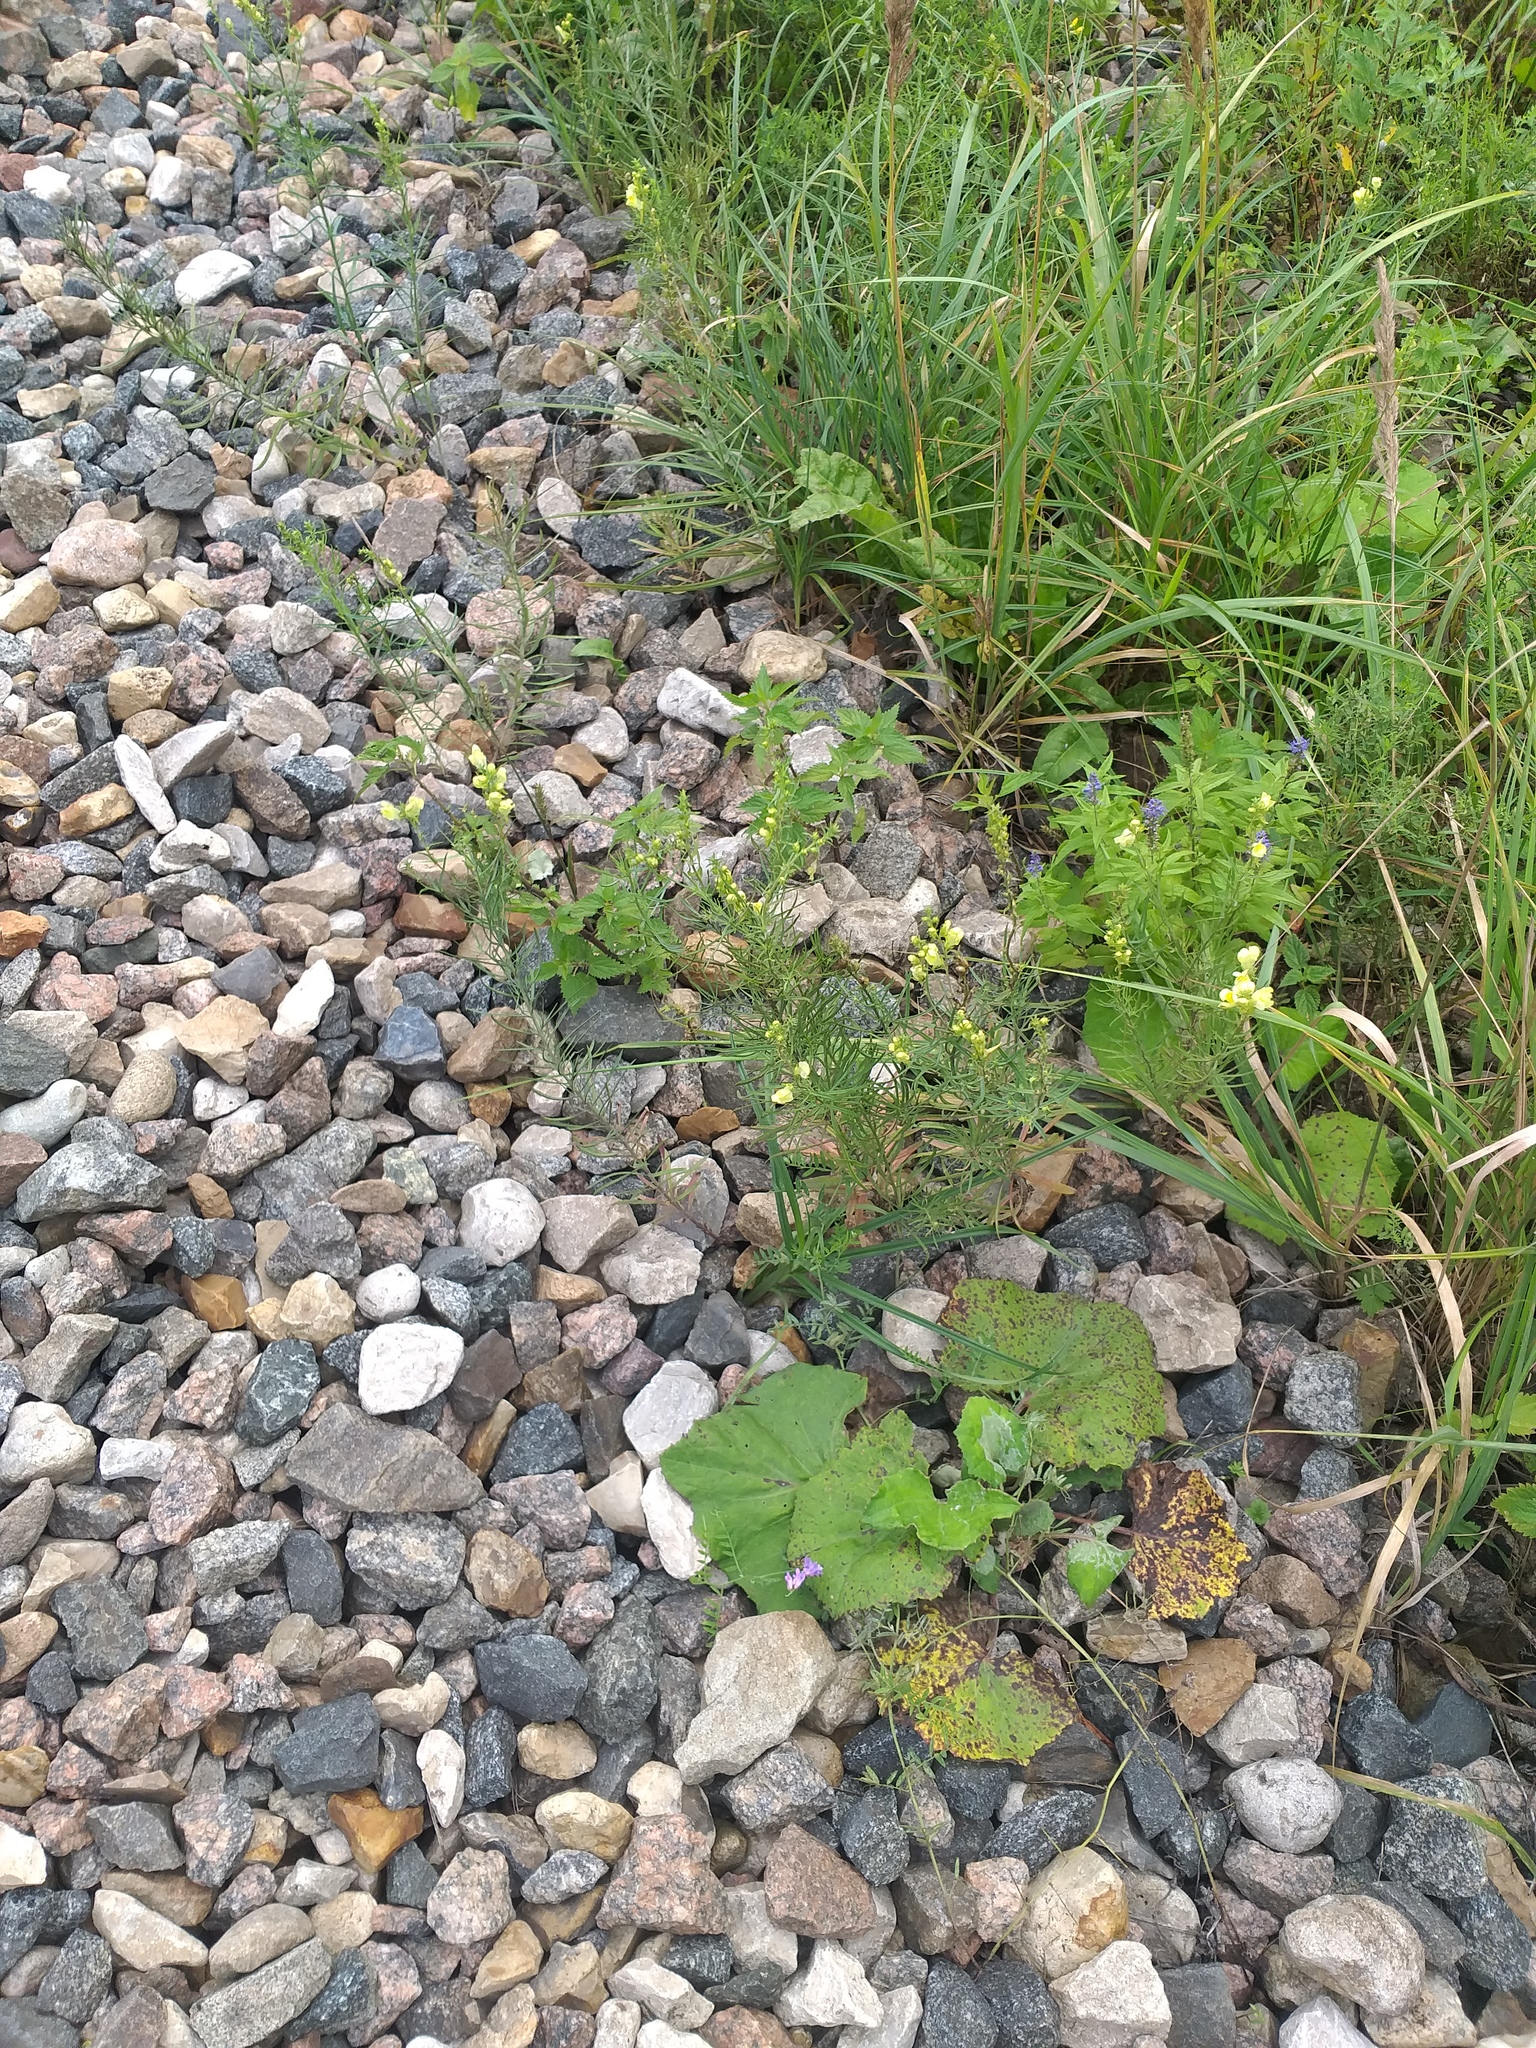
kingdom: Plantae
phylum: Tracheophyta
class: Magnoliopsida
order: Lamiales
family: Plantaginaceae
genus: Linaria
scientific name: Linaria vulgaris
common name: Butter and eggs
